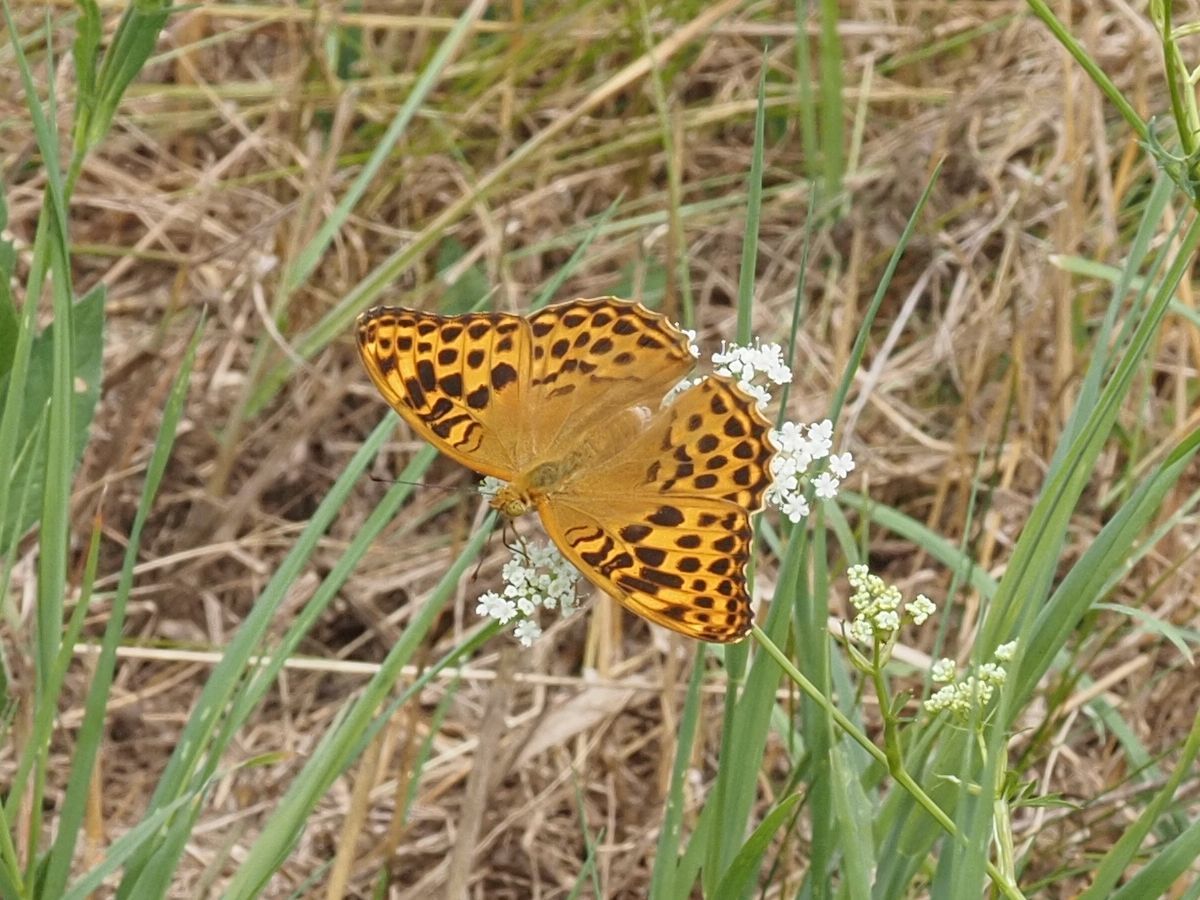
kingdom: Animalia
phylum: Arthropoda
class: Insecta
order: Lepidoptera
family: Nymphalidae
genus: Argynnis
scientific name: Argynnis paphia
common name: Silver-washed fritillary
